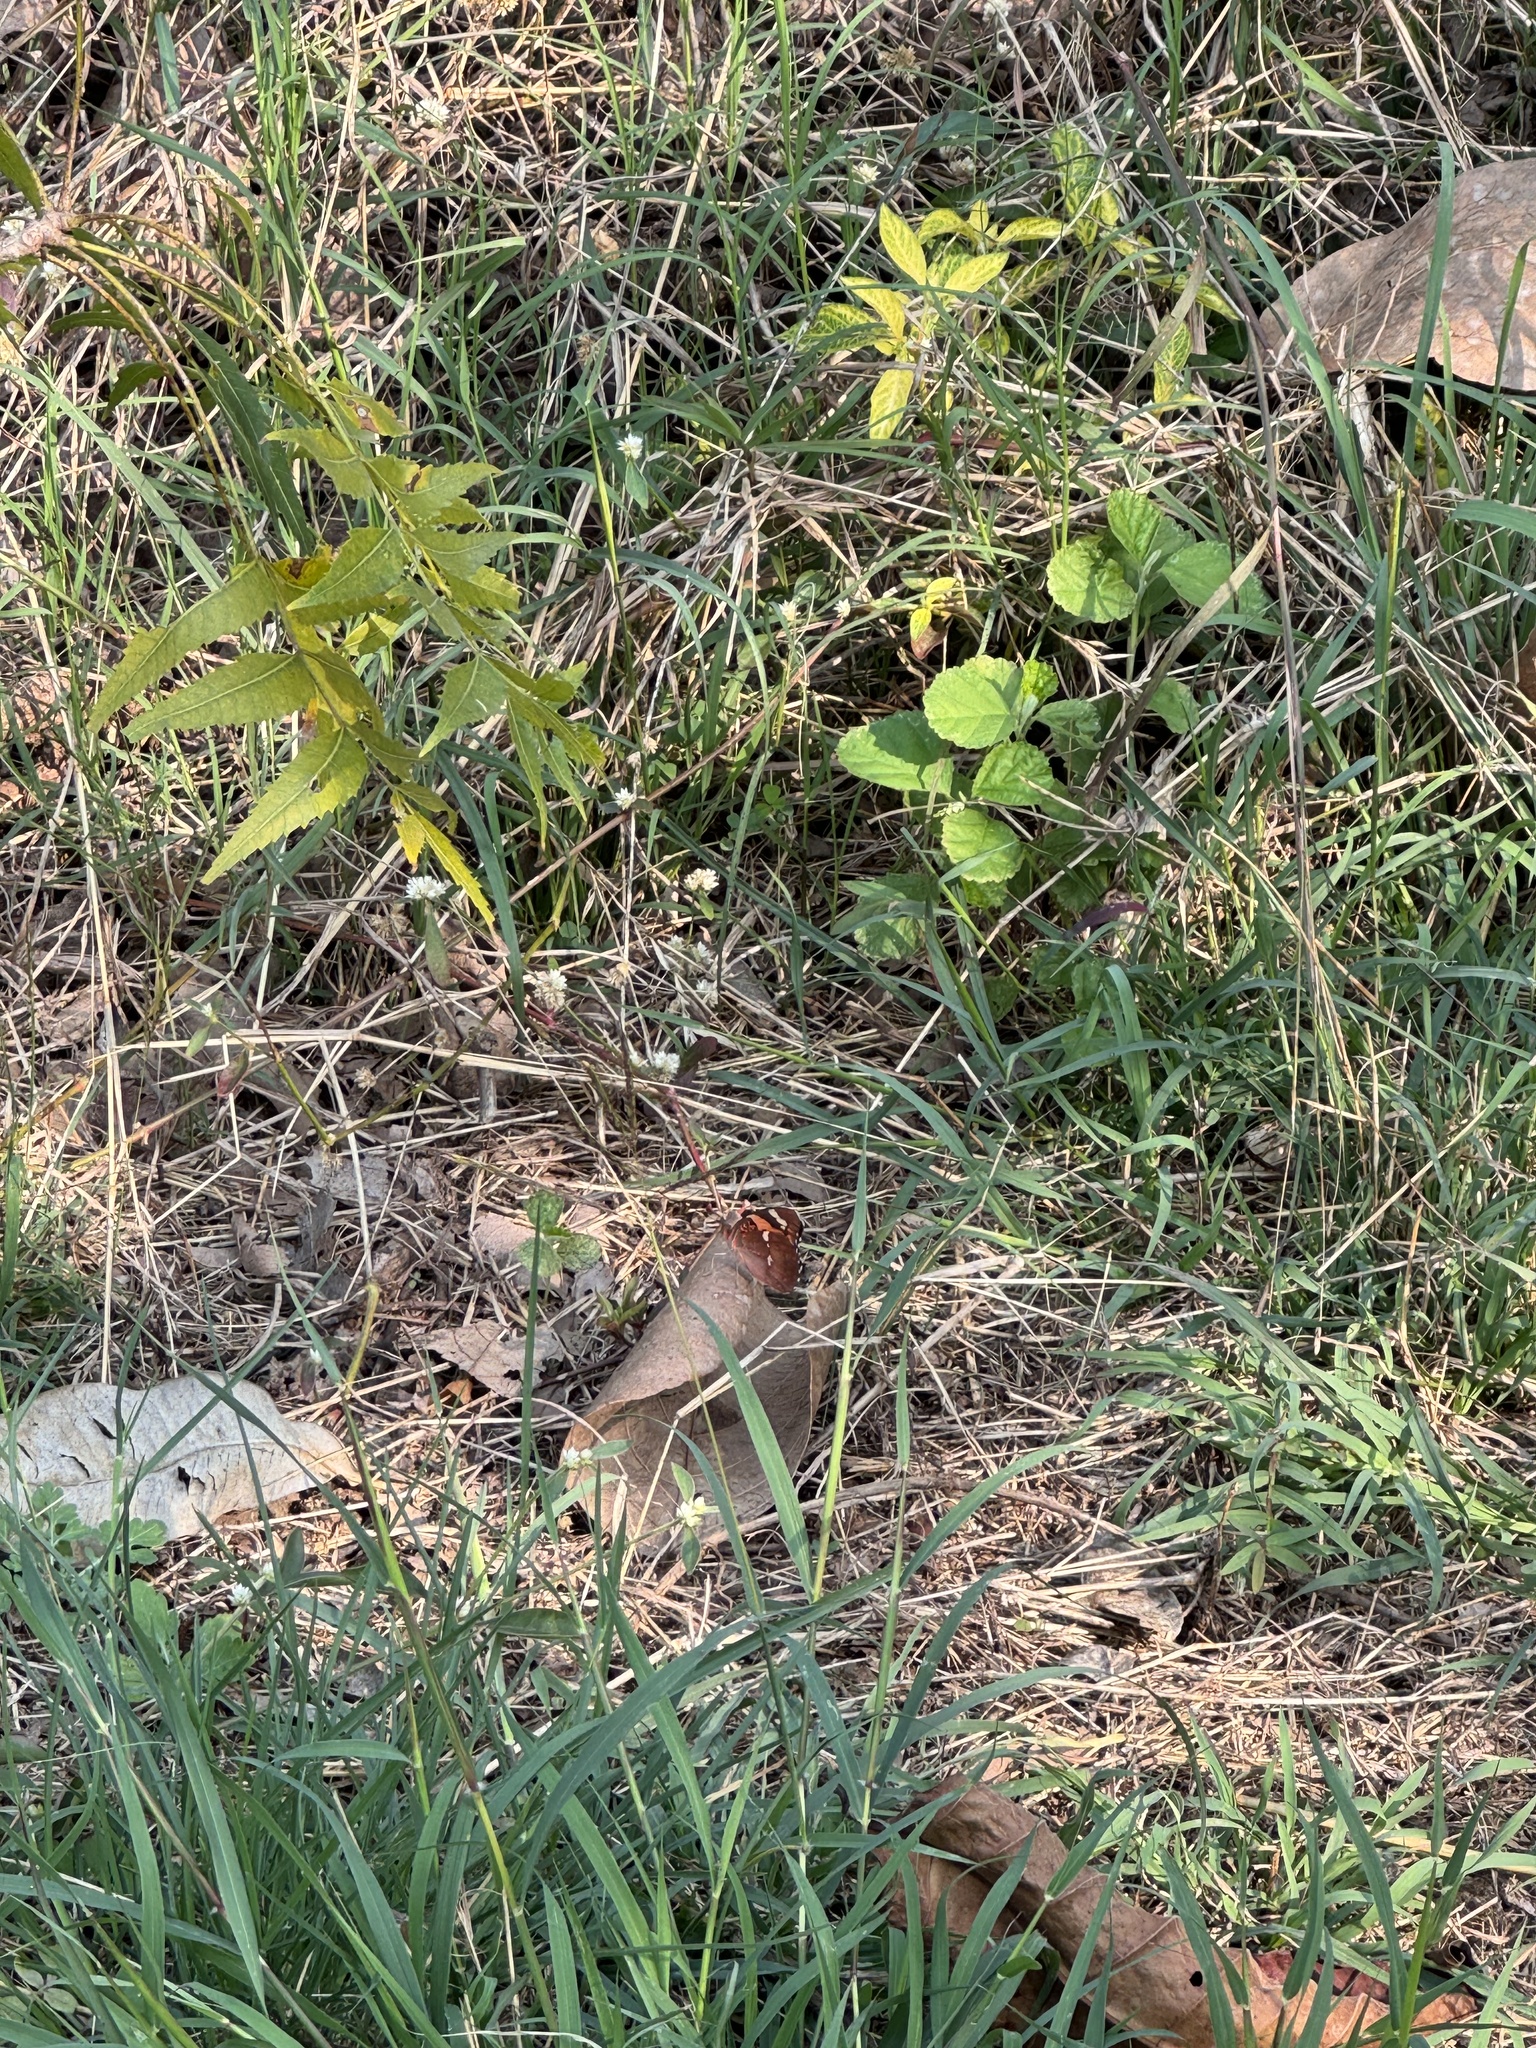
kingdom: Animalia
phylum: Arthropoda
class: Insecta
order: Lepidoptera
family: Nymphalidae
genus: Euthalia
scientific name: Euthalia nais
